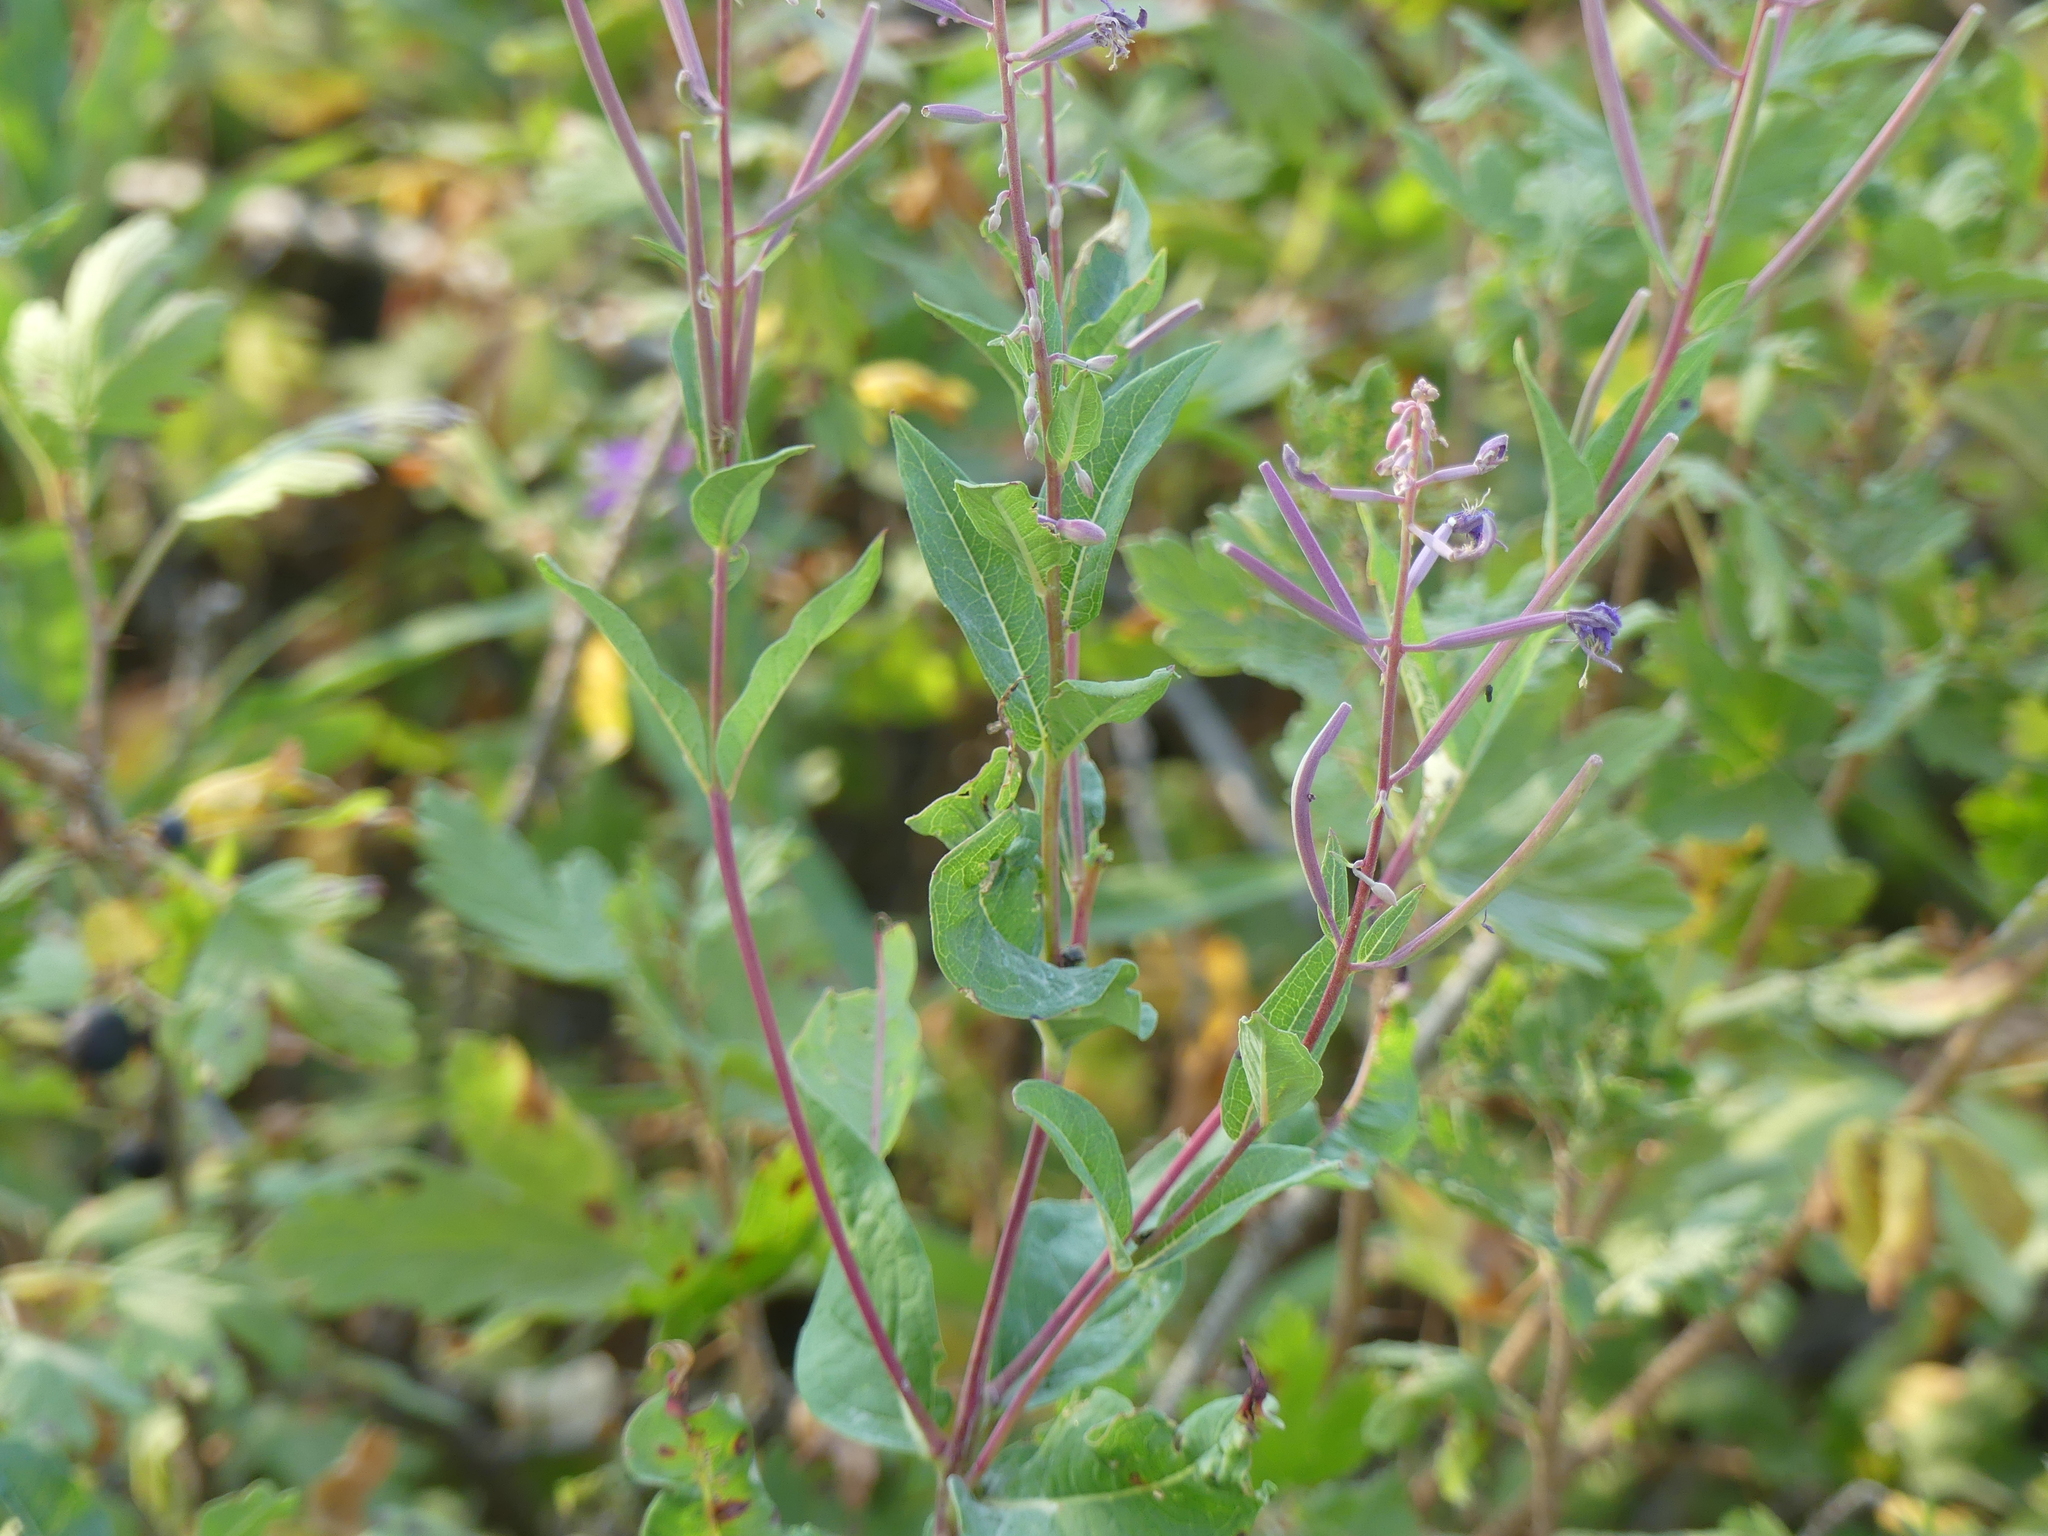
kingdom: Plantae
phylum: Tracheophyta
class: Magnoliopsida
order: Myrtales
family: Onagraceae
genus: Chamaenerion
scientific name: Chamaenerion angustifolium
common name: Fireweed
